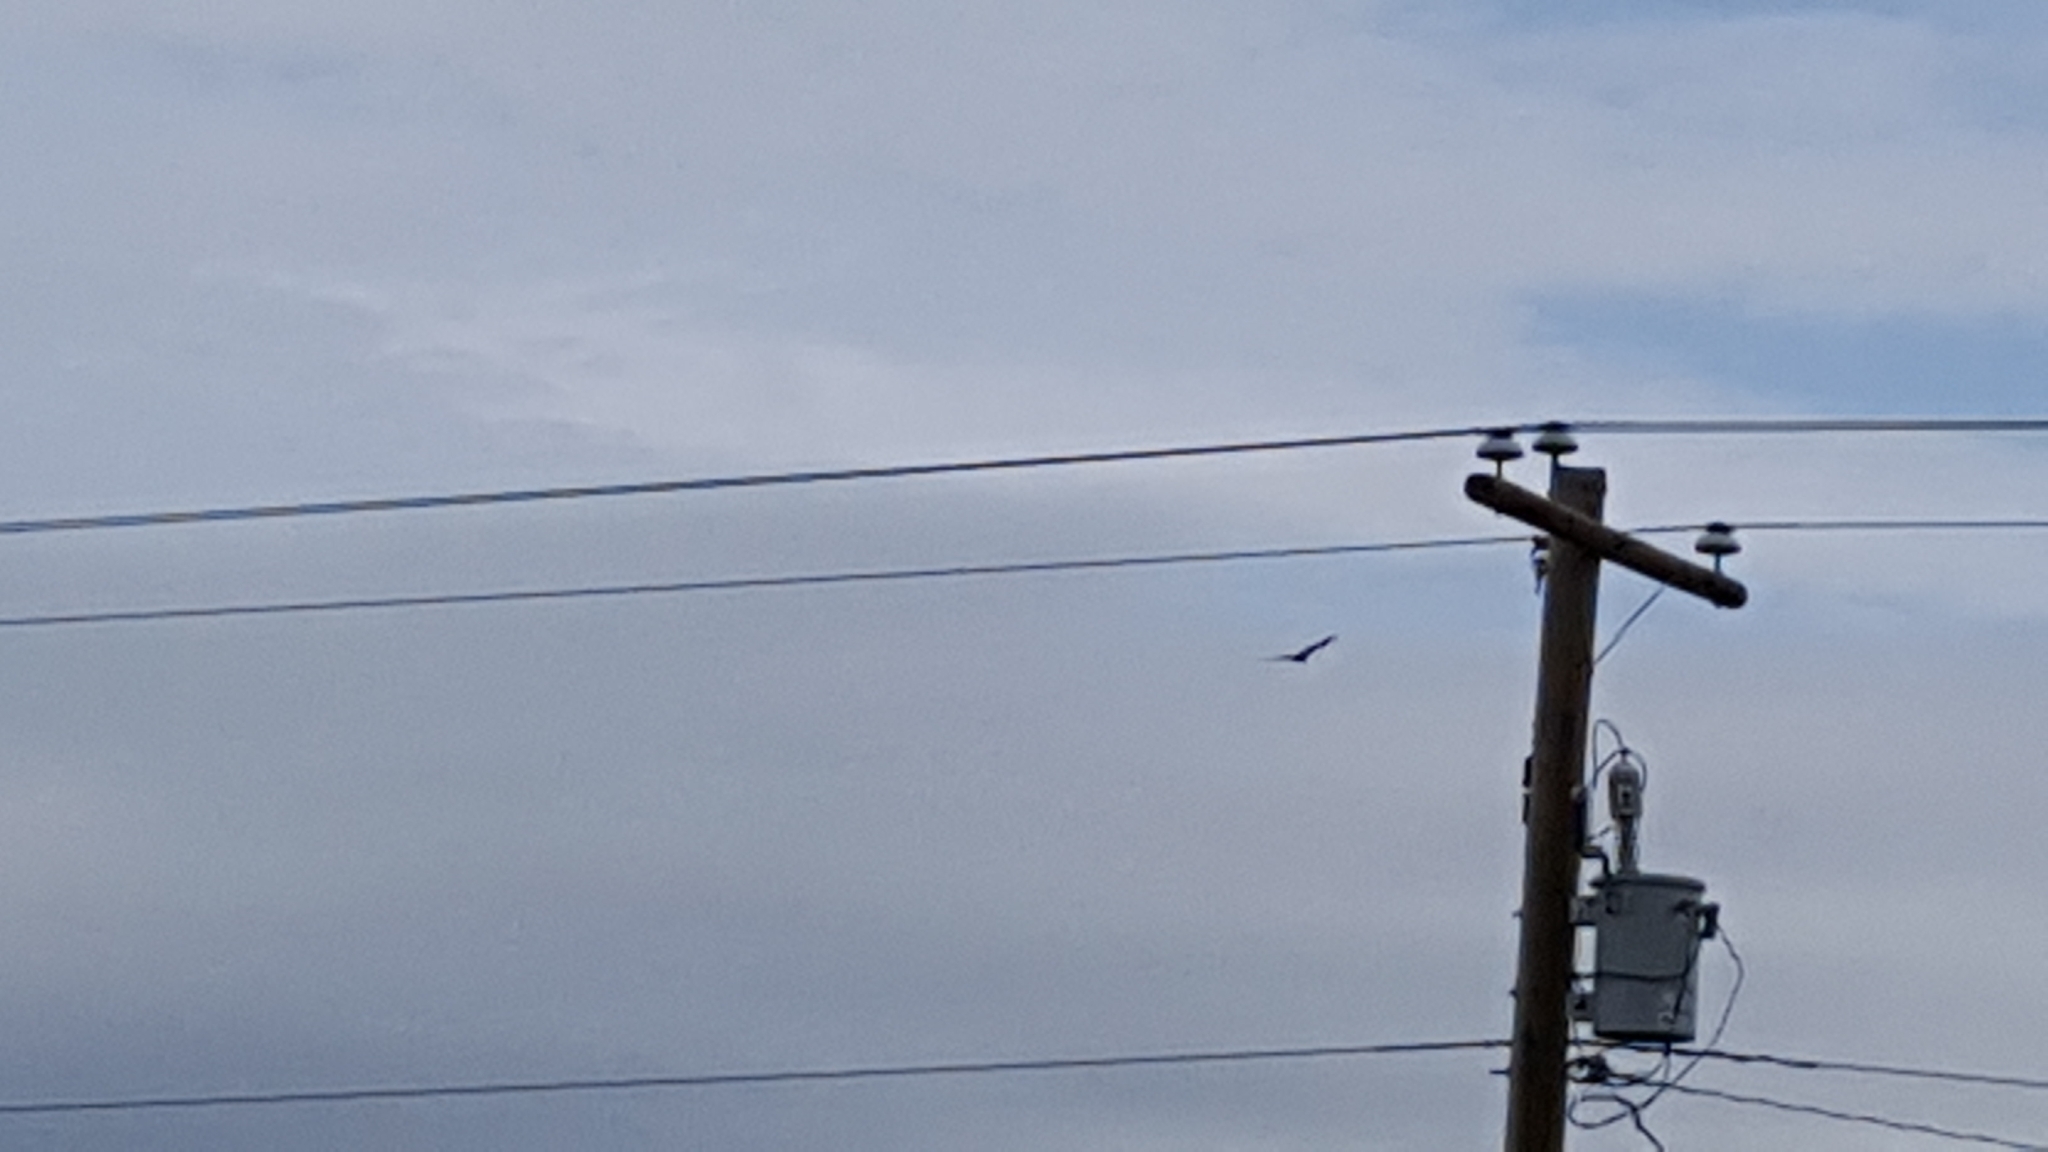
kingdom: Animalia
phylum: Chordata
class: Aves
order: Accipitriformes
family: Cathartidae
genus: Cathartes
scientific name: Cathartes aura
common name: Turkey vulture
